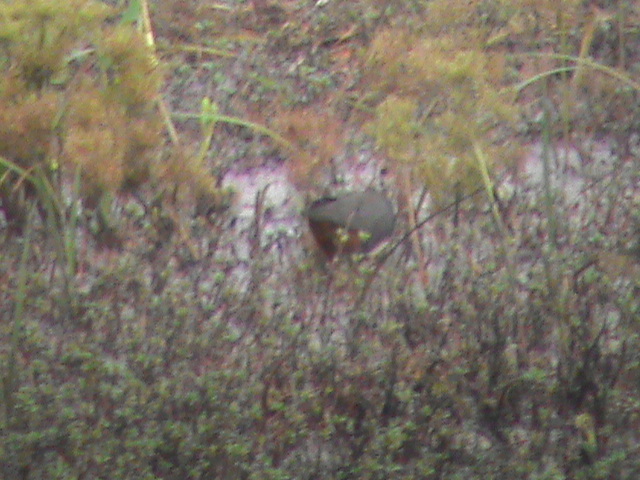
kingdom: Animalia
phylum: Chordata
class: Aves
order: Gruiformes
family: Rallidae
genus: Amaurornis
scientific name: Amaurornis phoenicurus
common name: White-breasted waterhen
